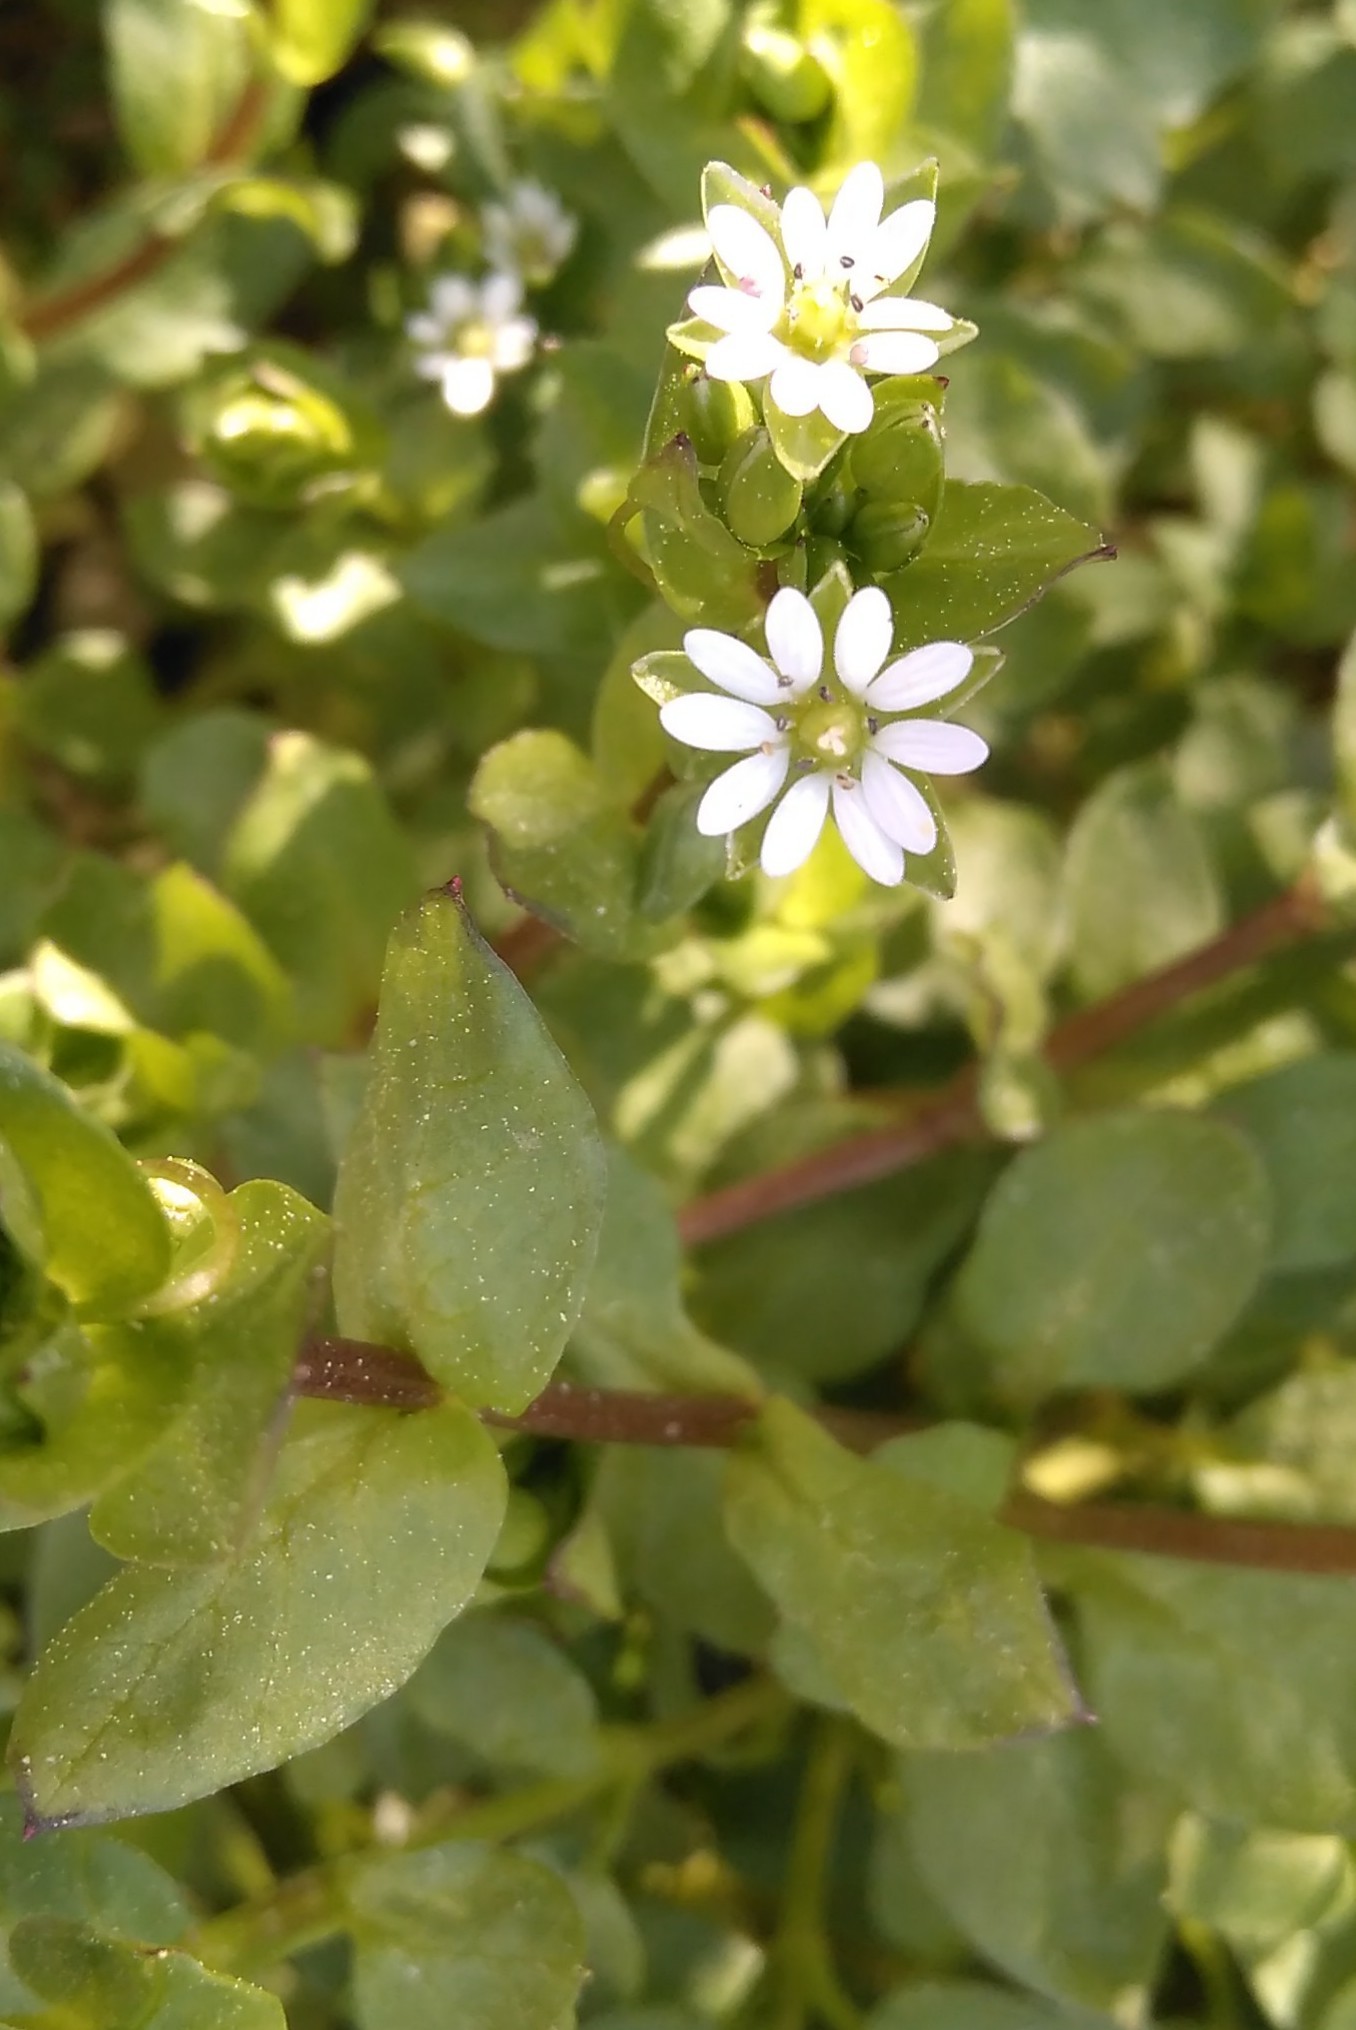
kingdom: Plantae
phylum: Tracheophyta
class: Magnoliopsida
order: Caryophyllales
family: Caryophyllaceae
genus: Stellaria
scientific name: Stellaria media
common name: Common chickweed
